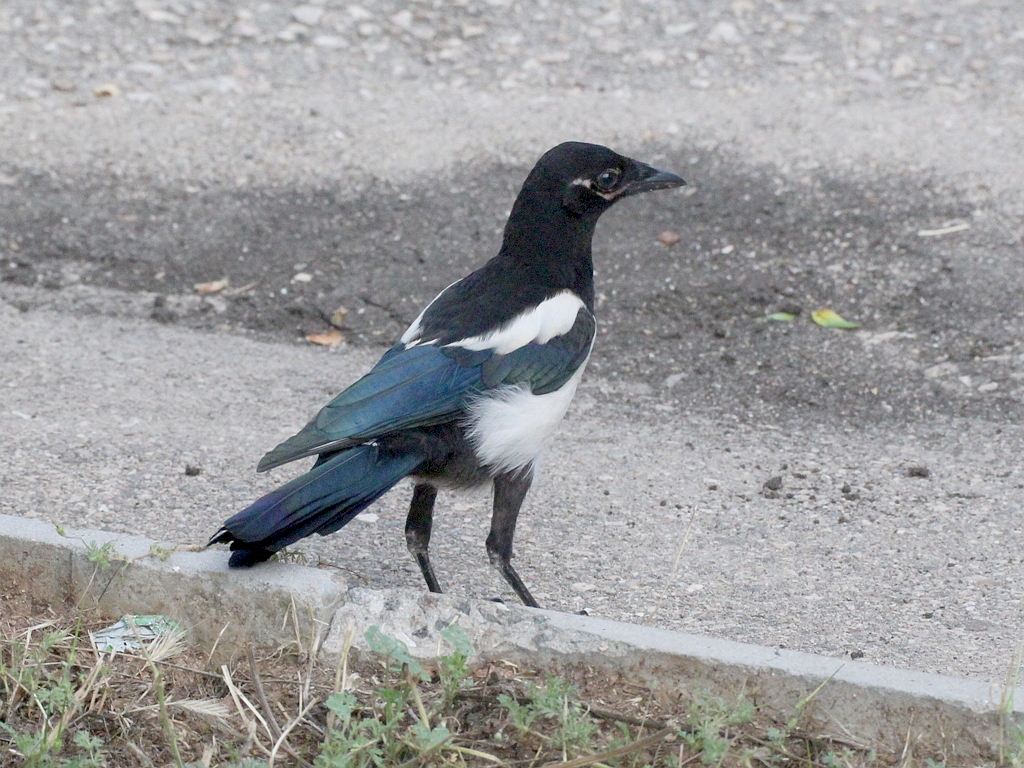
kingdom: Animalia
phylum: Chordata
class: Aves
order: Passeriformes
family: Corvidae
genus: Pica
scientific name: Pica pica
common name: Eurasian magpie
